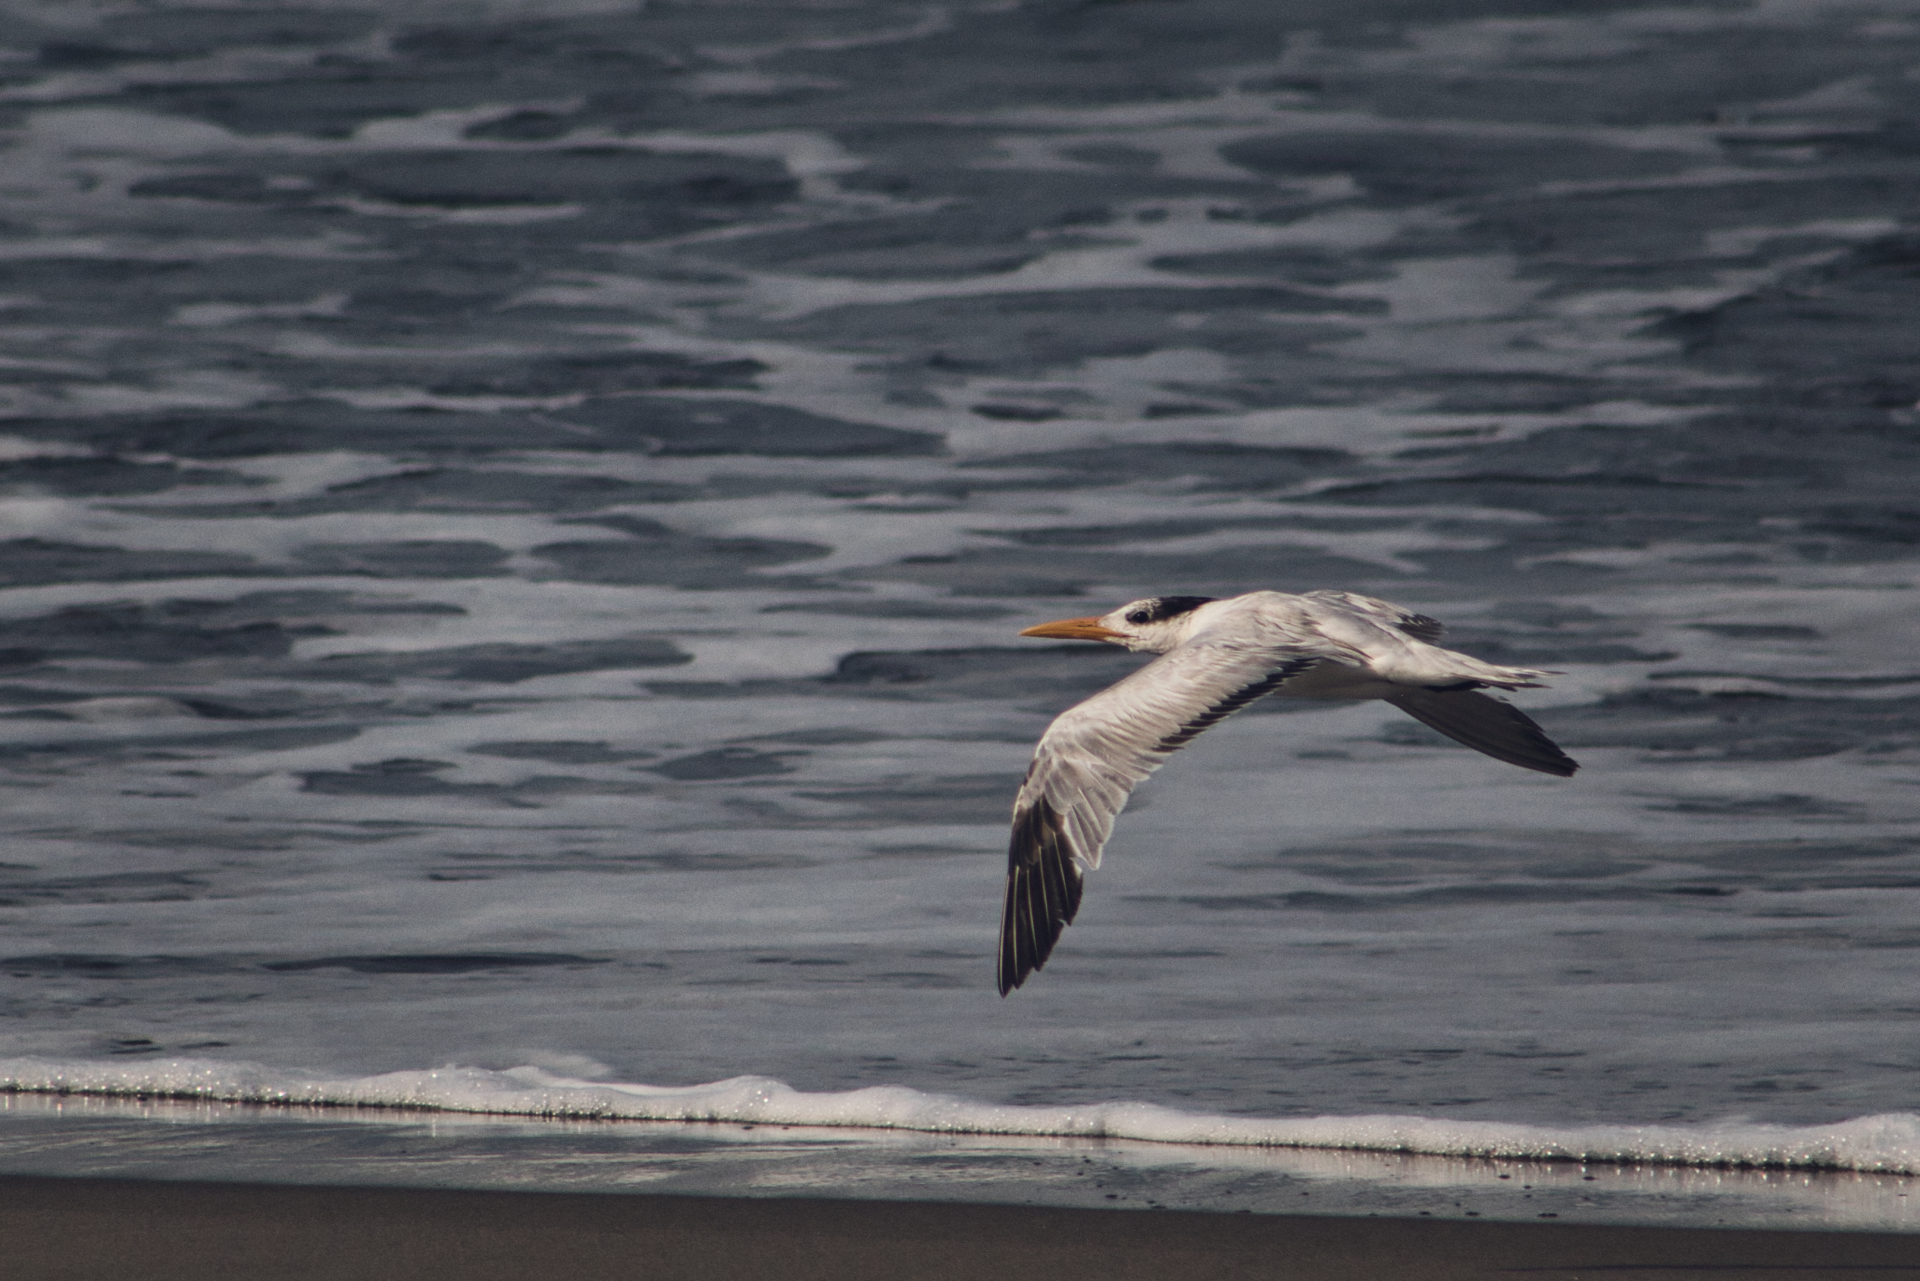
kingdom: Animalia
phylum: Chordata
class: Aves
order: Charadriiformes
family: Laridae
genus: Thalasseus
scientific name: Thalasseus maximus
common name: Royal tern
